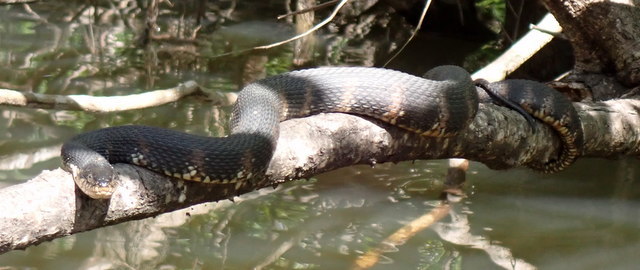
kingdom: Animalia
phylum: Chordata
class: Squamata
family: Colubridae
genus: Nerodia
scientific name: Nerodia fasciata
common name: Southern water snake
